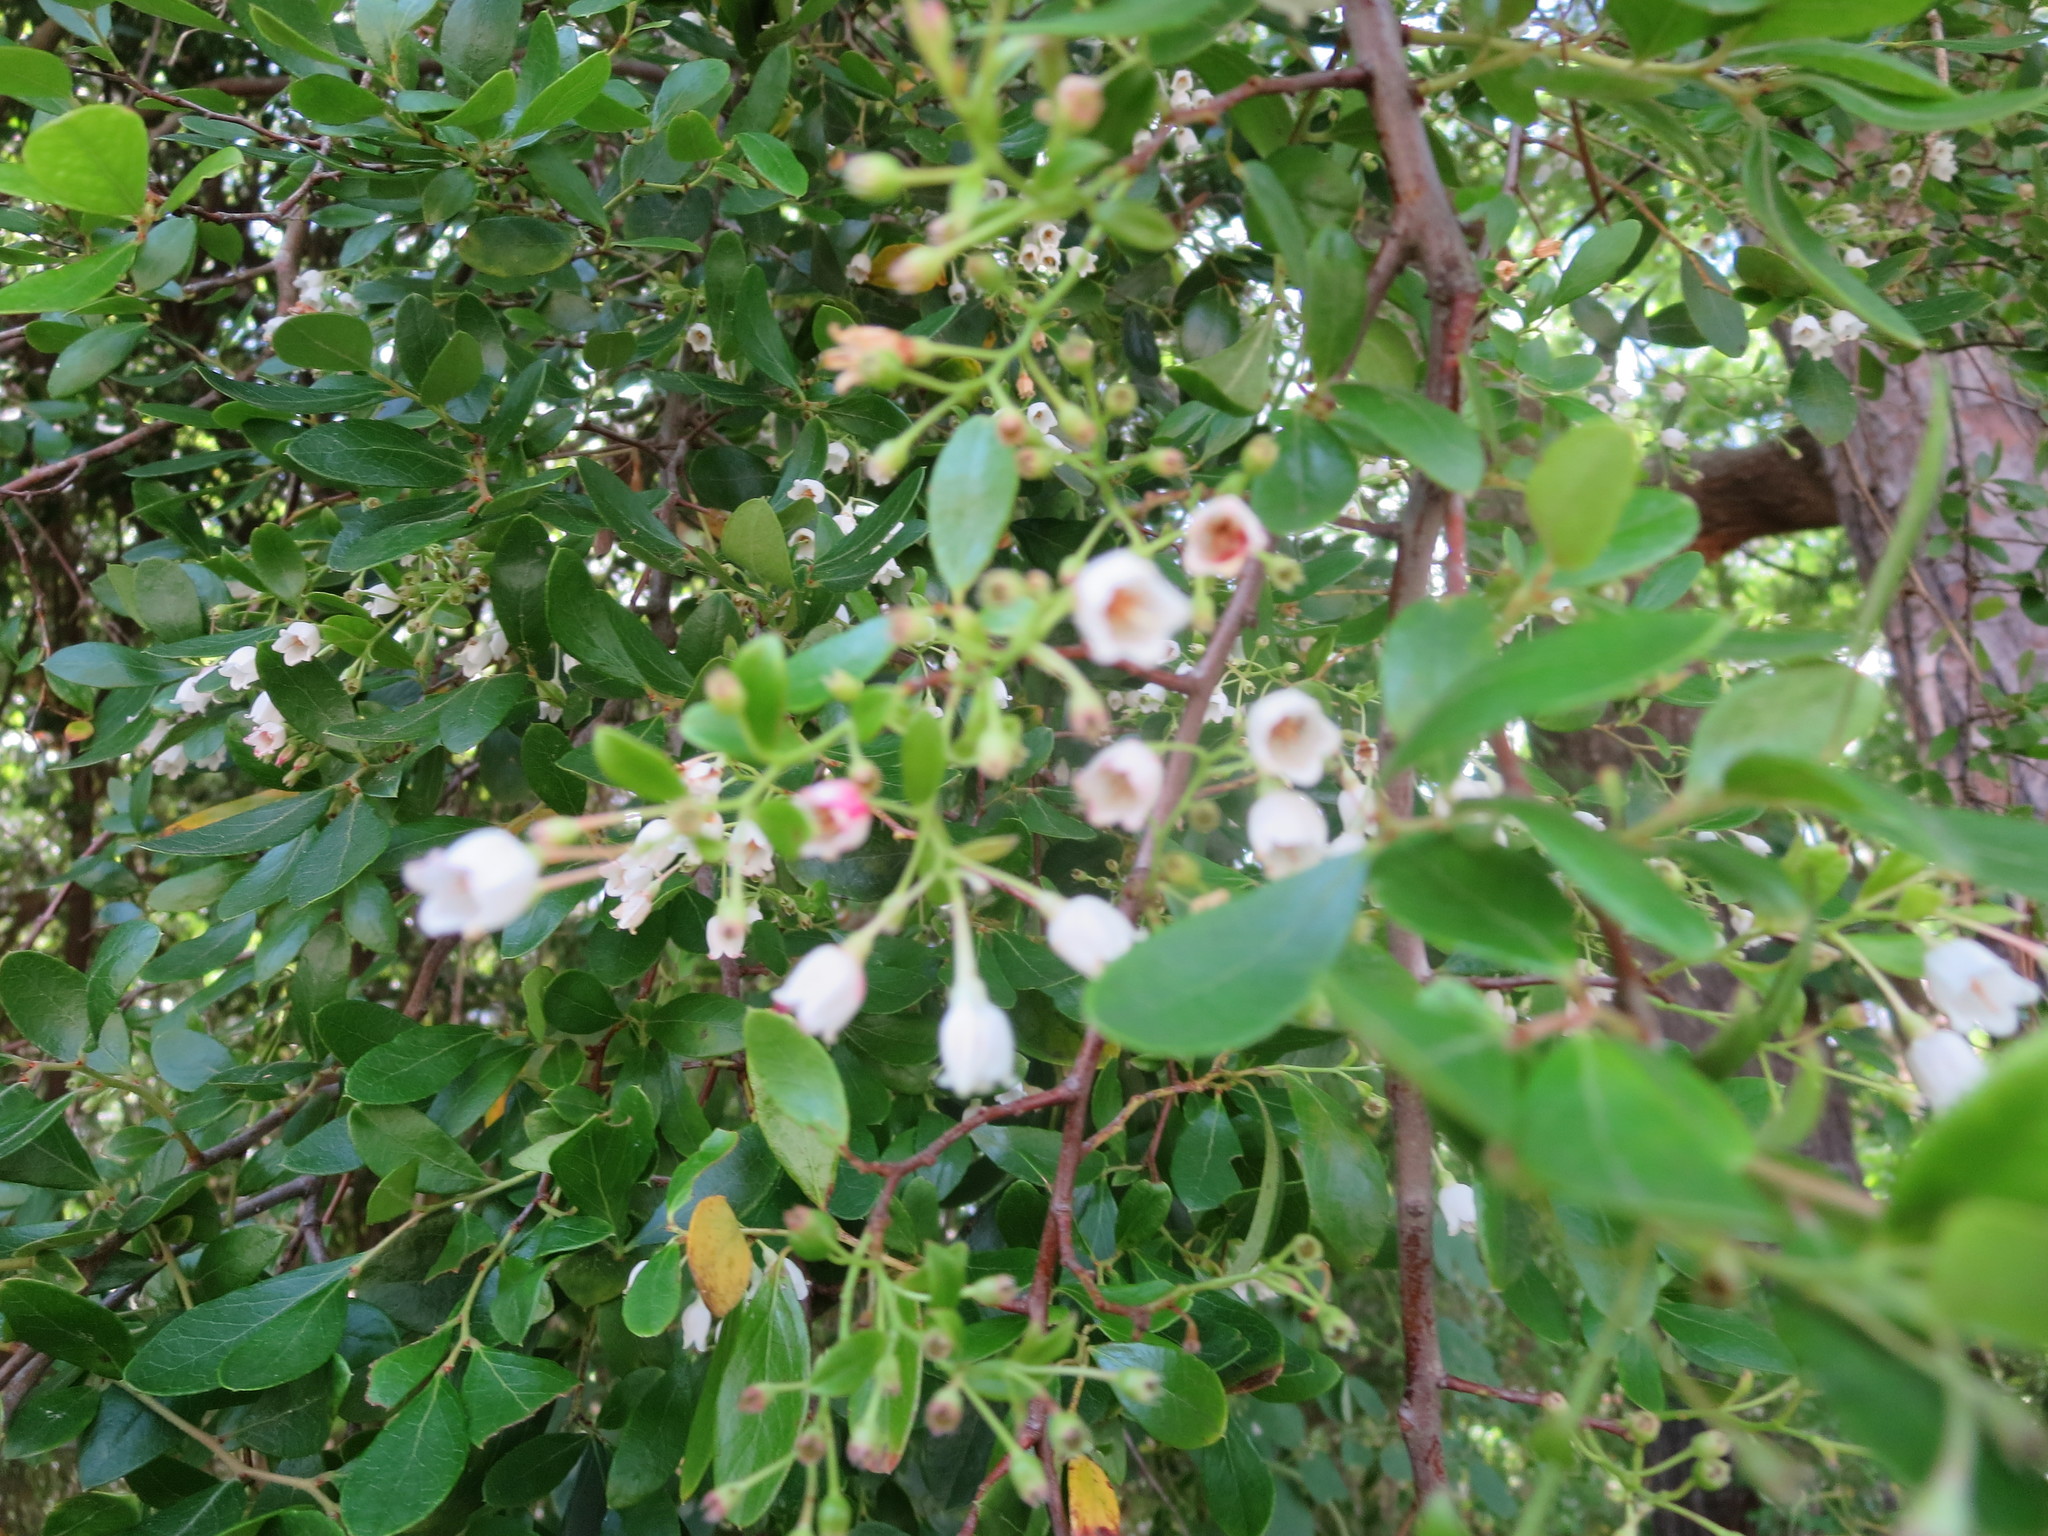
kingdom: Plantae
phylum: Tracheophyta
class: Magnoliopsida
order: Ericales
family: Ericaceae
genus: Vaccinium
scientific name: Vaccinium arboreum
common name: Farkleberry
